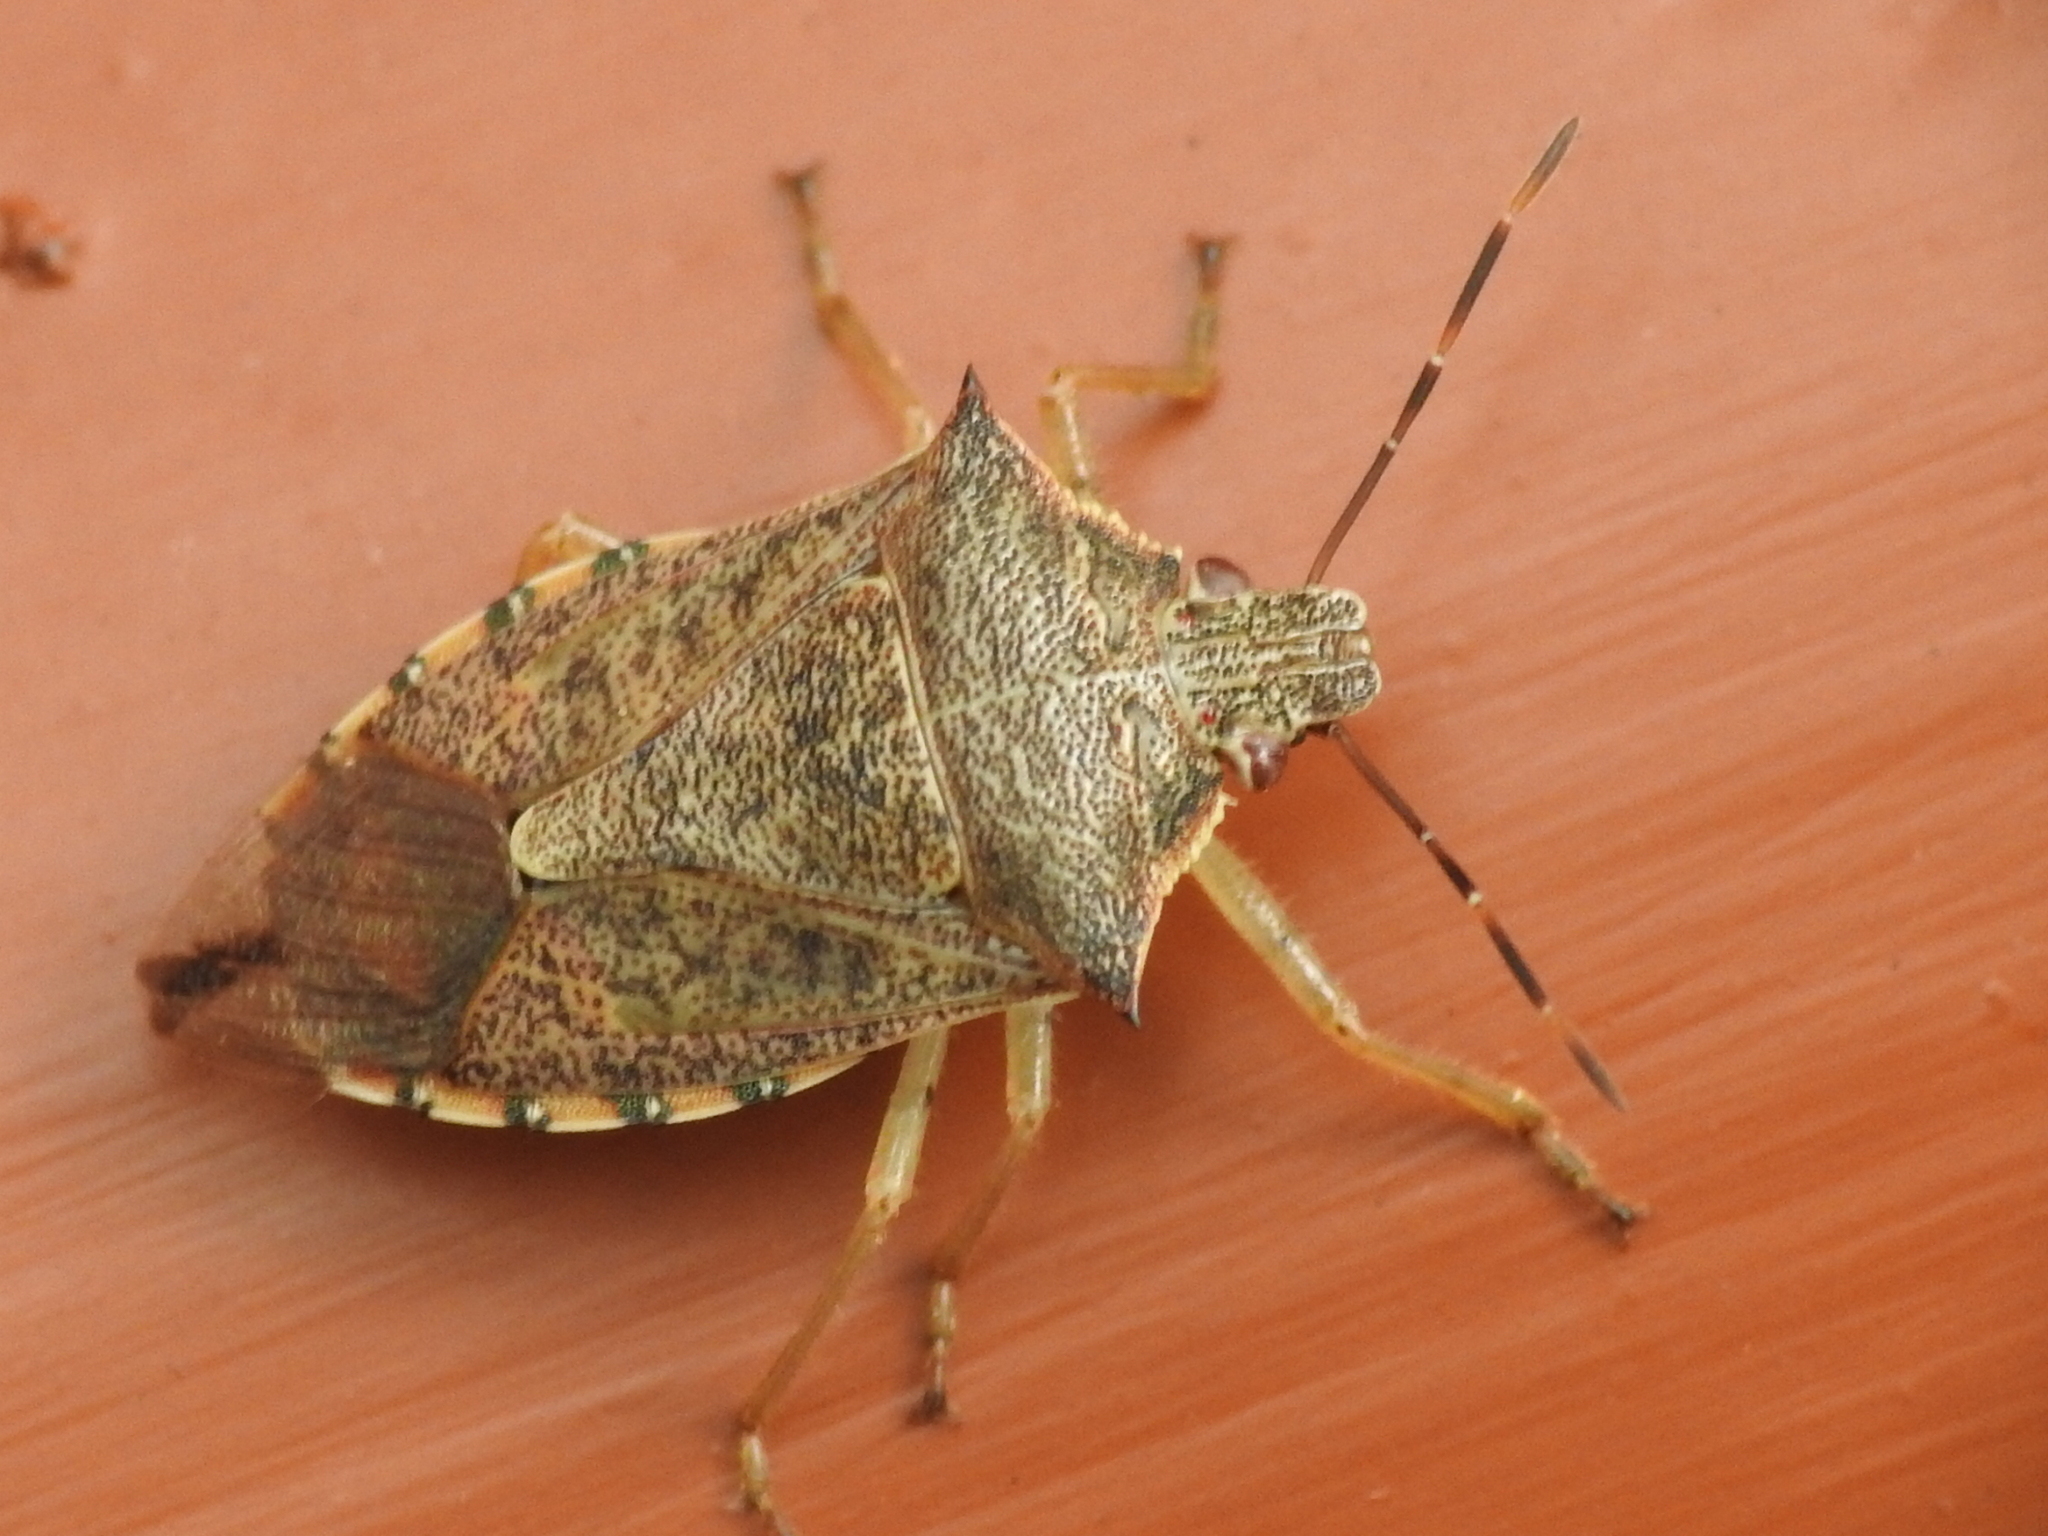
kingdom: Animalia
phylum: Arthropoda
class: Insecta
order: Hemiptera
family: Pentatomidae
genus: Podisus
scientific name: Podisus maculiventris
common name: Spined soldier bug
